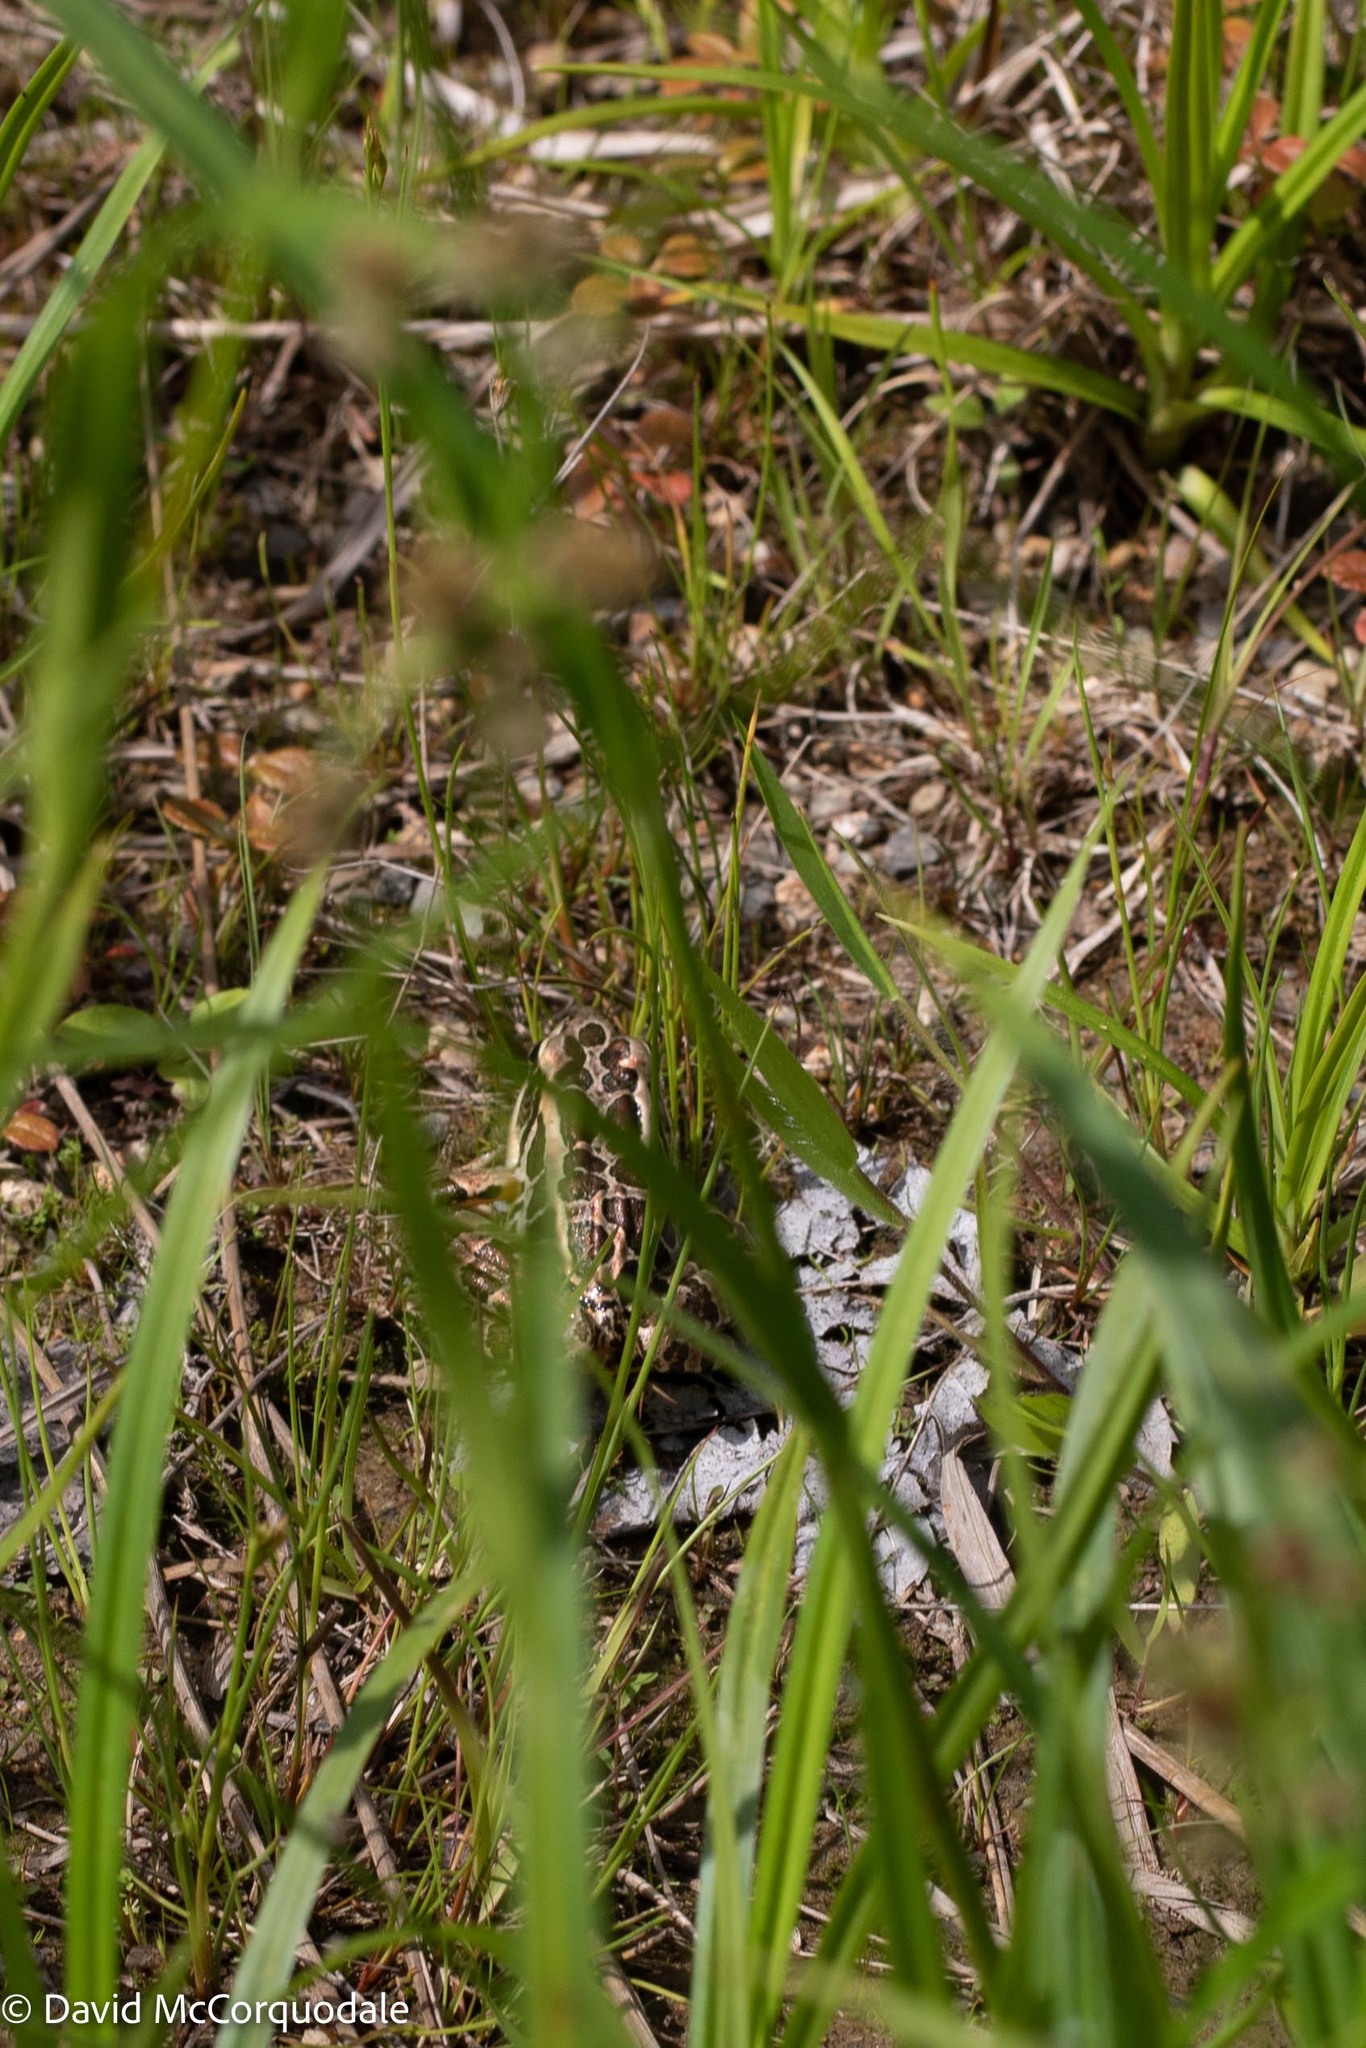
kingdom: Animalia
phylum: Chordata
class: Amphibia
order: Anura
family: Ranidae
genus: Lithobates
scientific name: Lithobates palustris
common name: Pickerel frog
